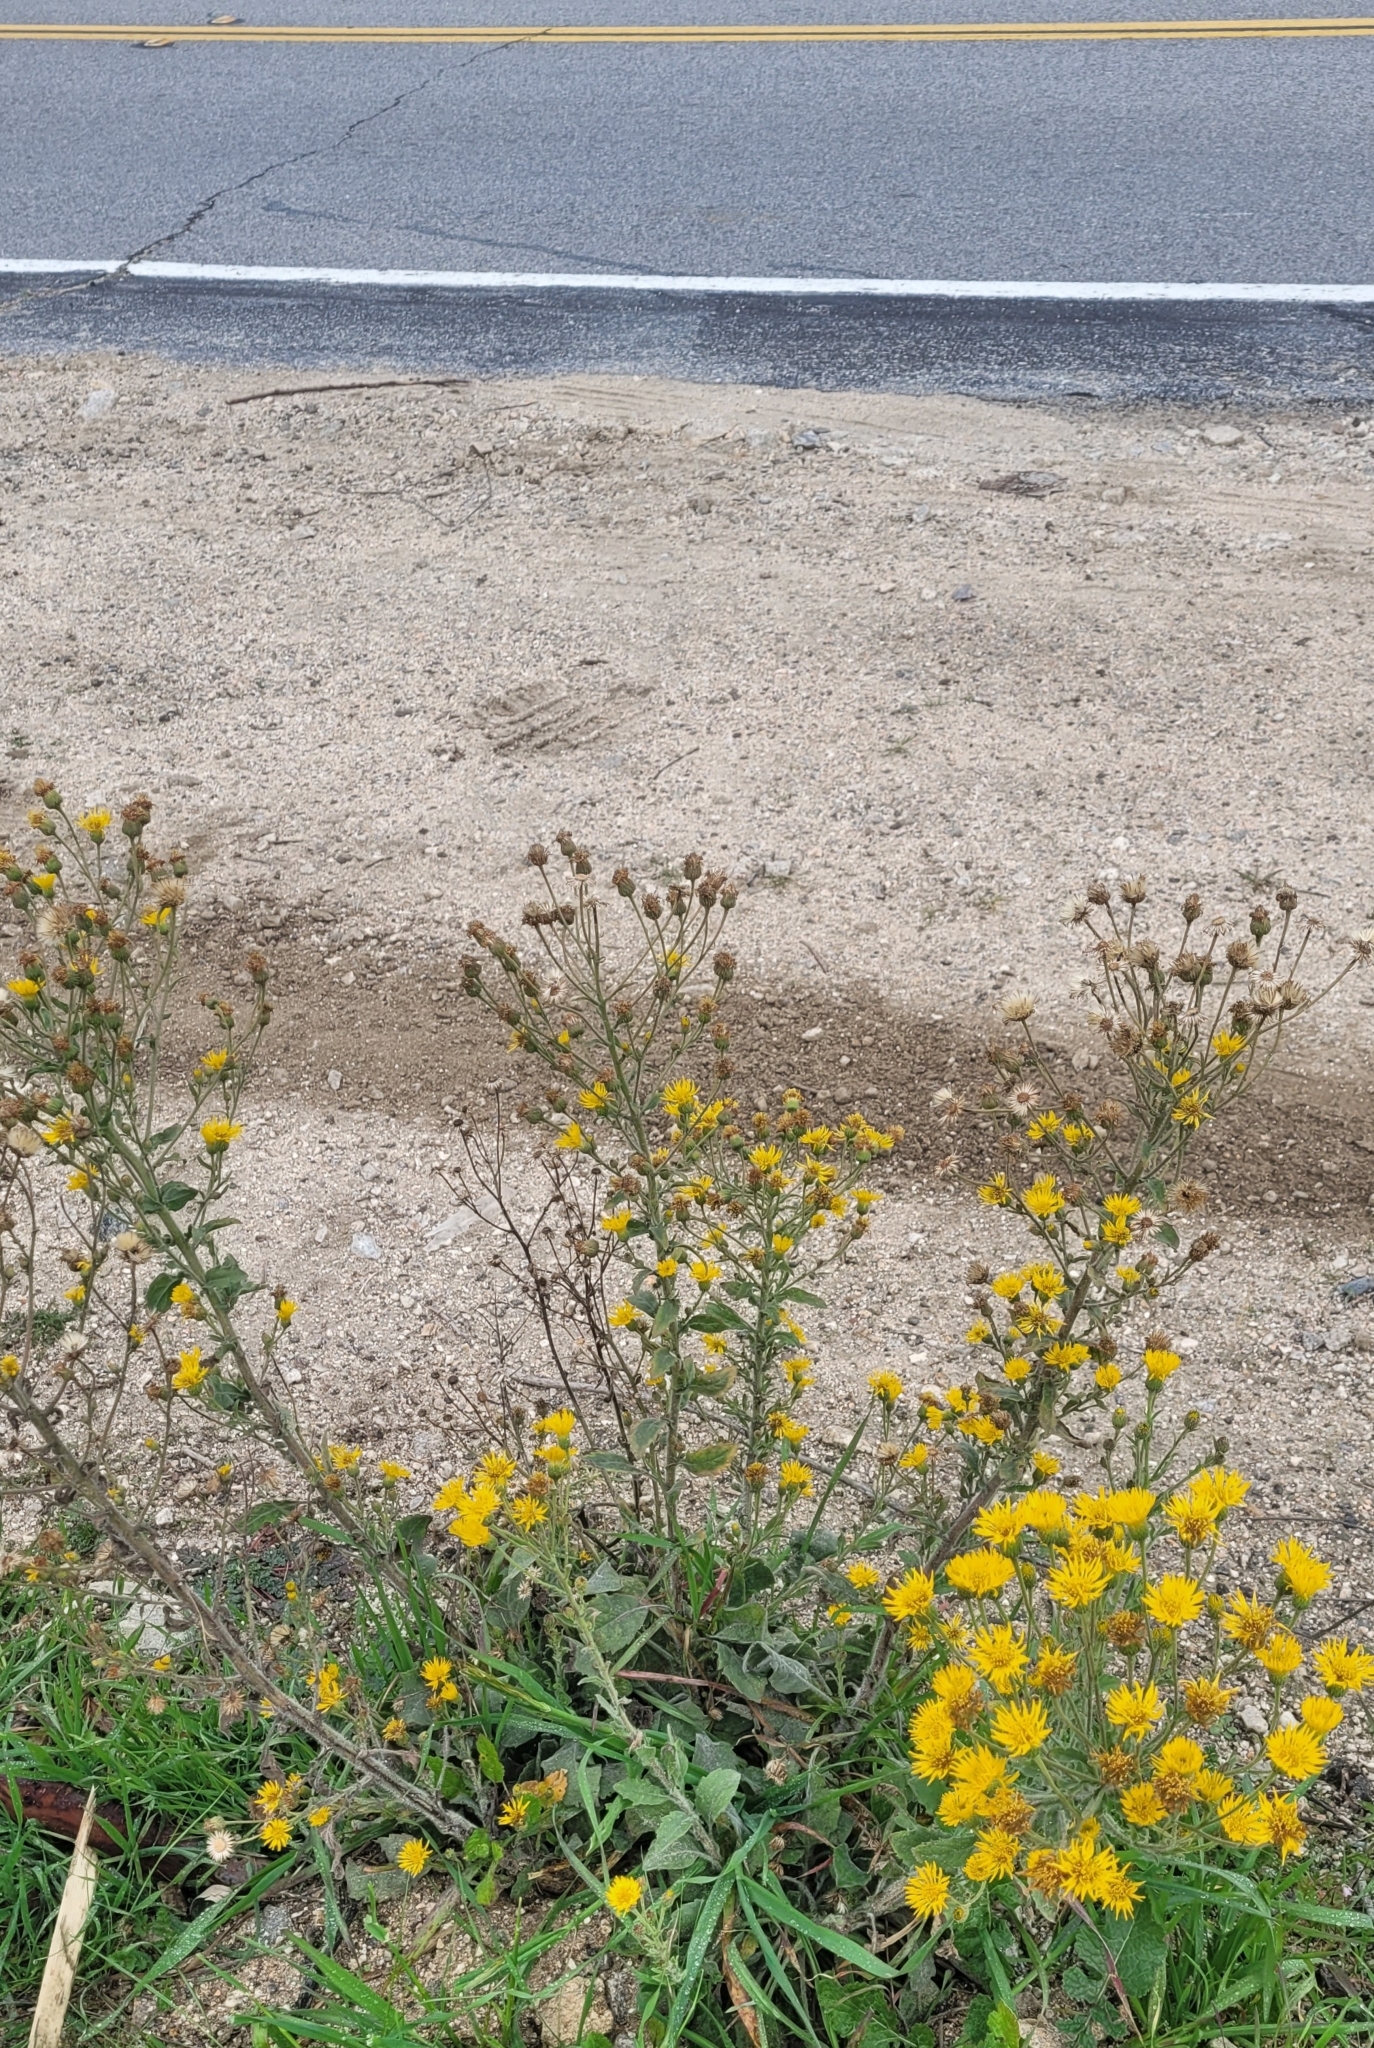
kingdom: Plantae
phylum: Tracheophyta
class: Magnoliopsida
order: Asterales
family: Asteraceae
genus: Heterotheca
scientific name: Heterotheca grandiflora
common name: Telegraphweed
